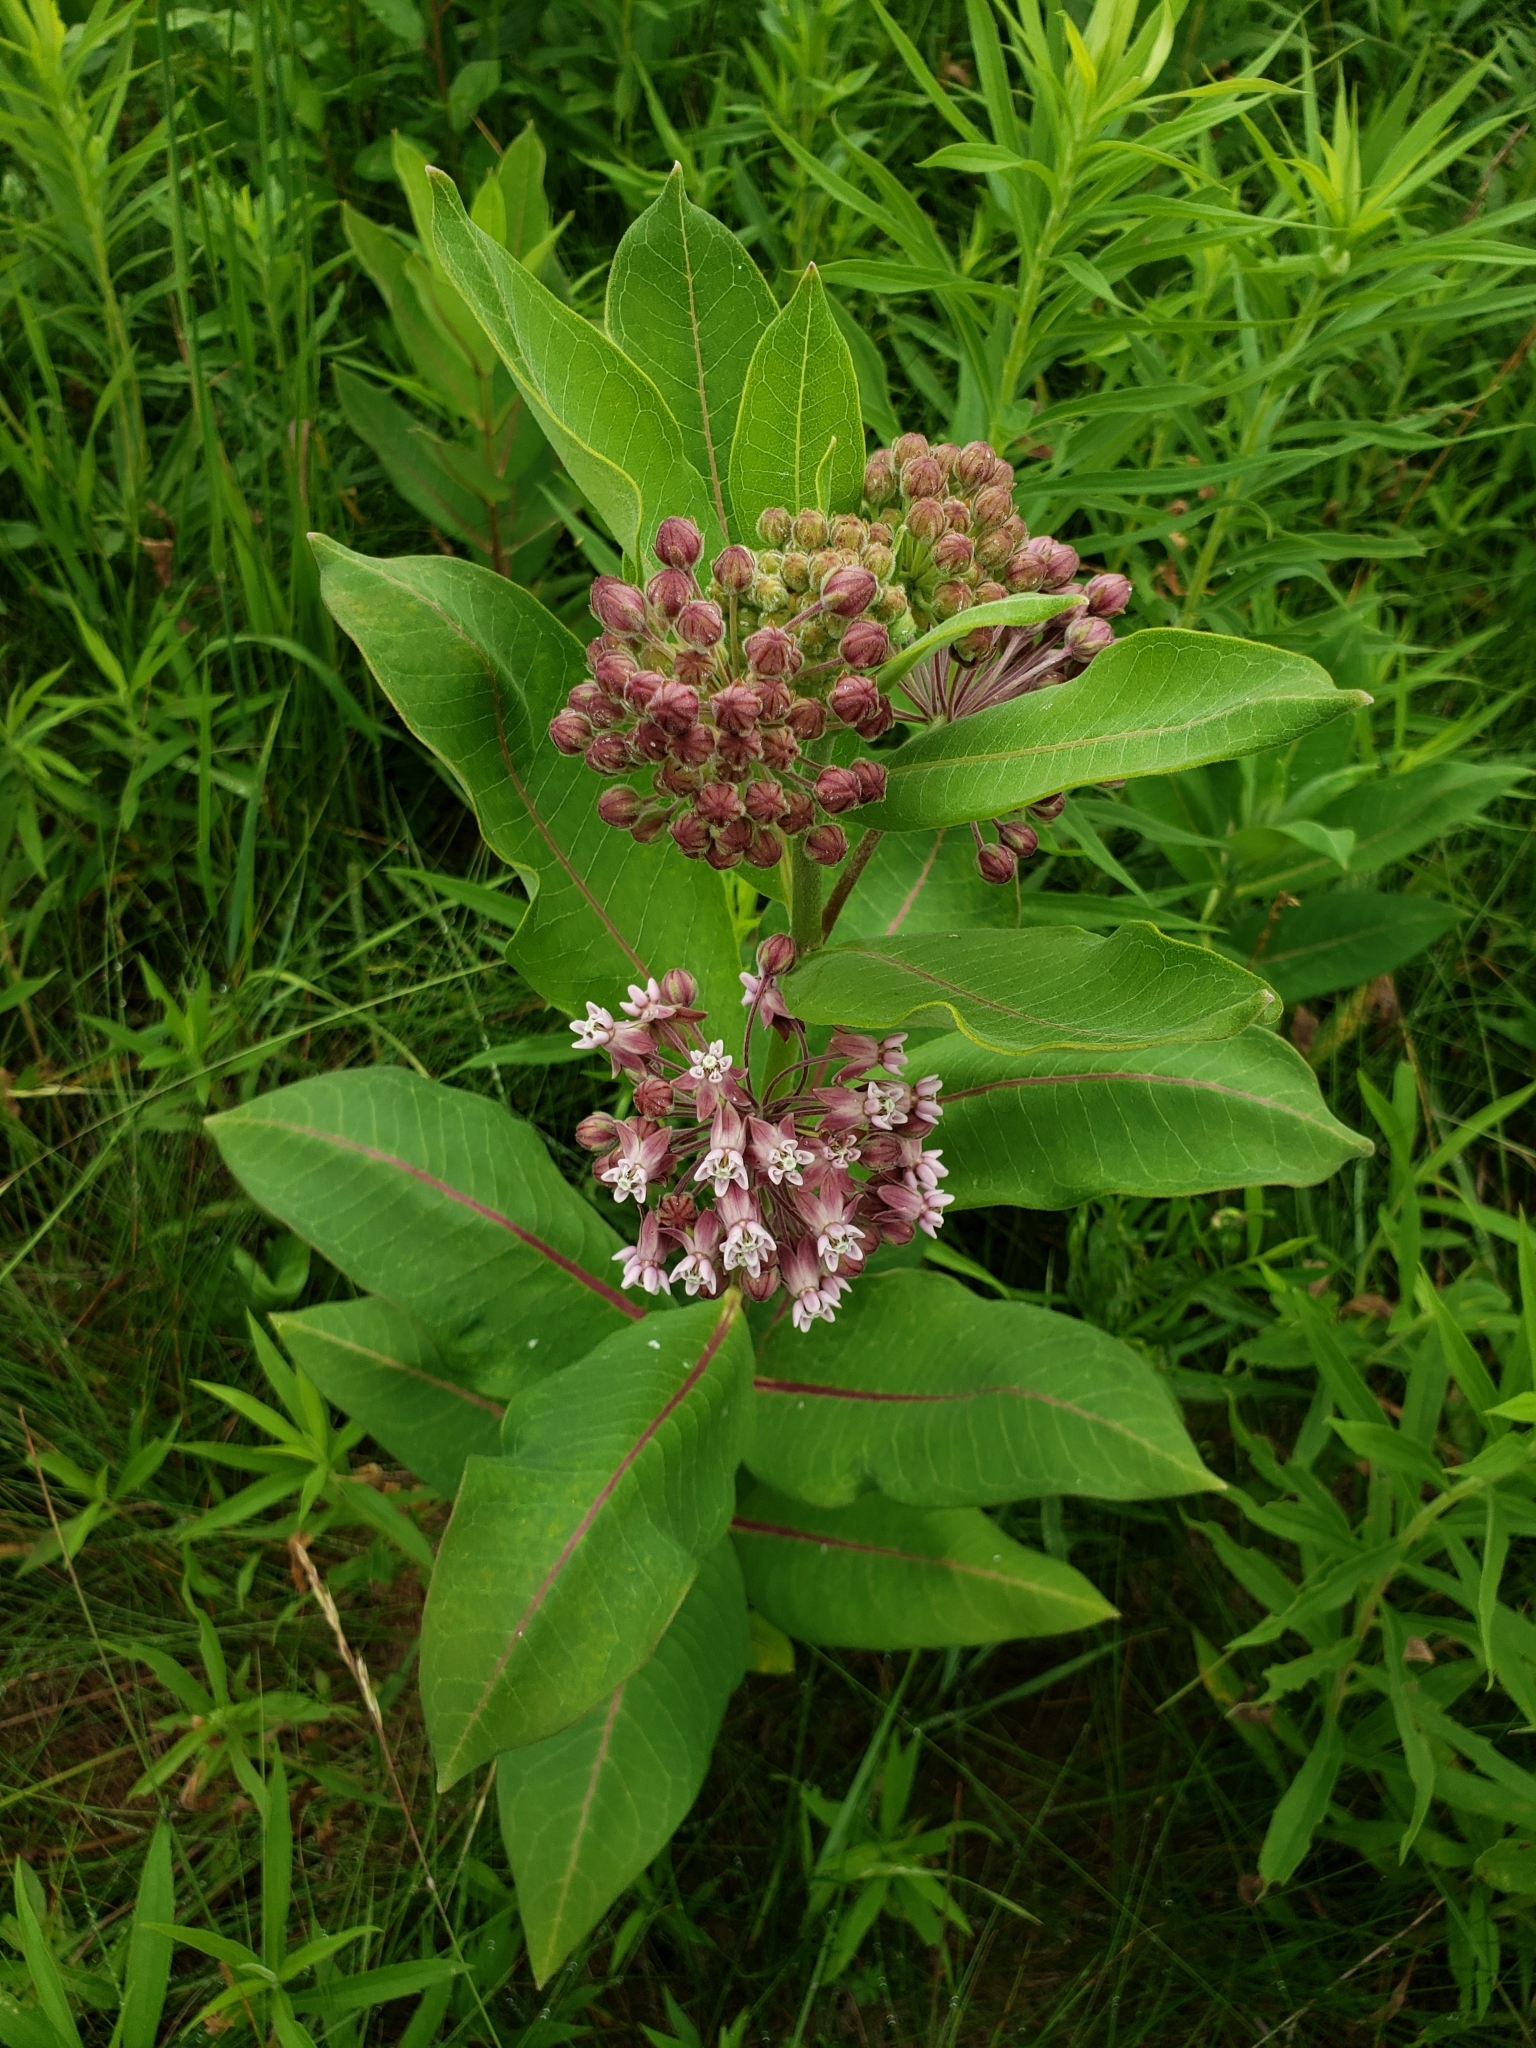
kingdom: Plantae
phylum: Tracheophyta
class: Magnoliopsida
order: Gentianales
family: Apocynaceae
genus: Asclepias
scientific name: Asclepias syriaca
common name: Common milkweed
